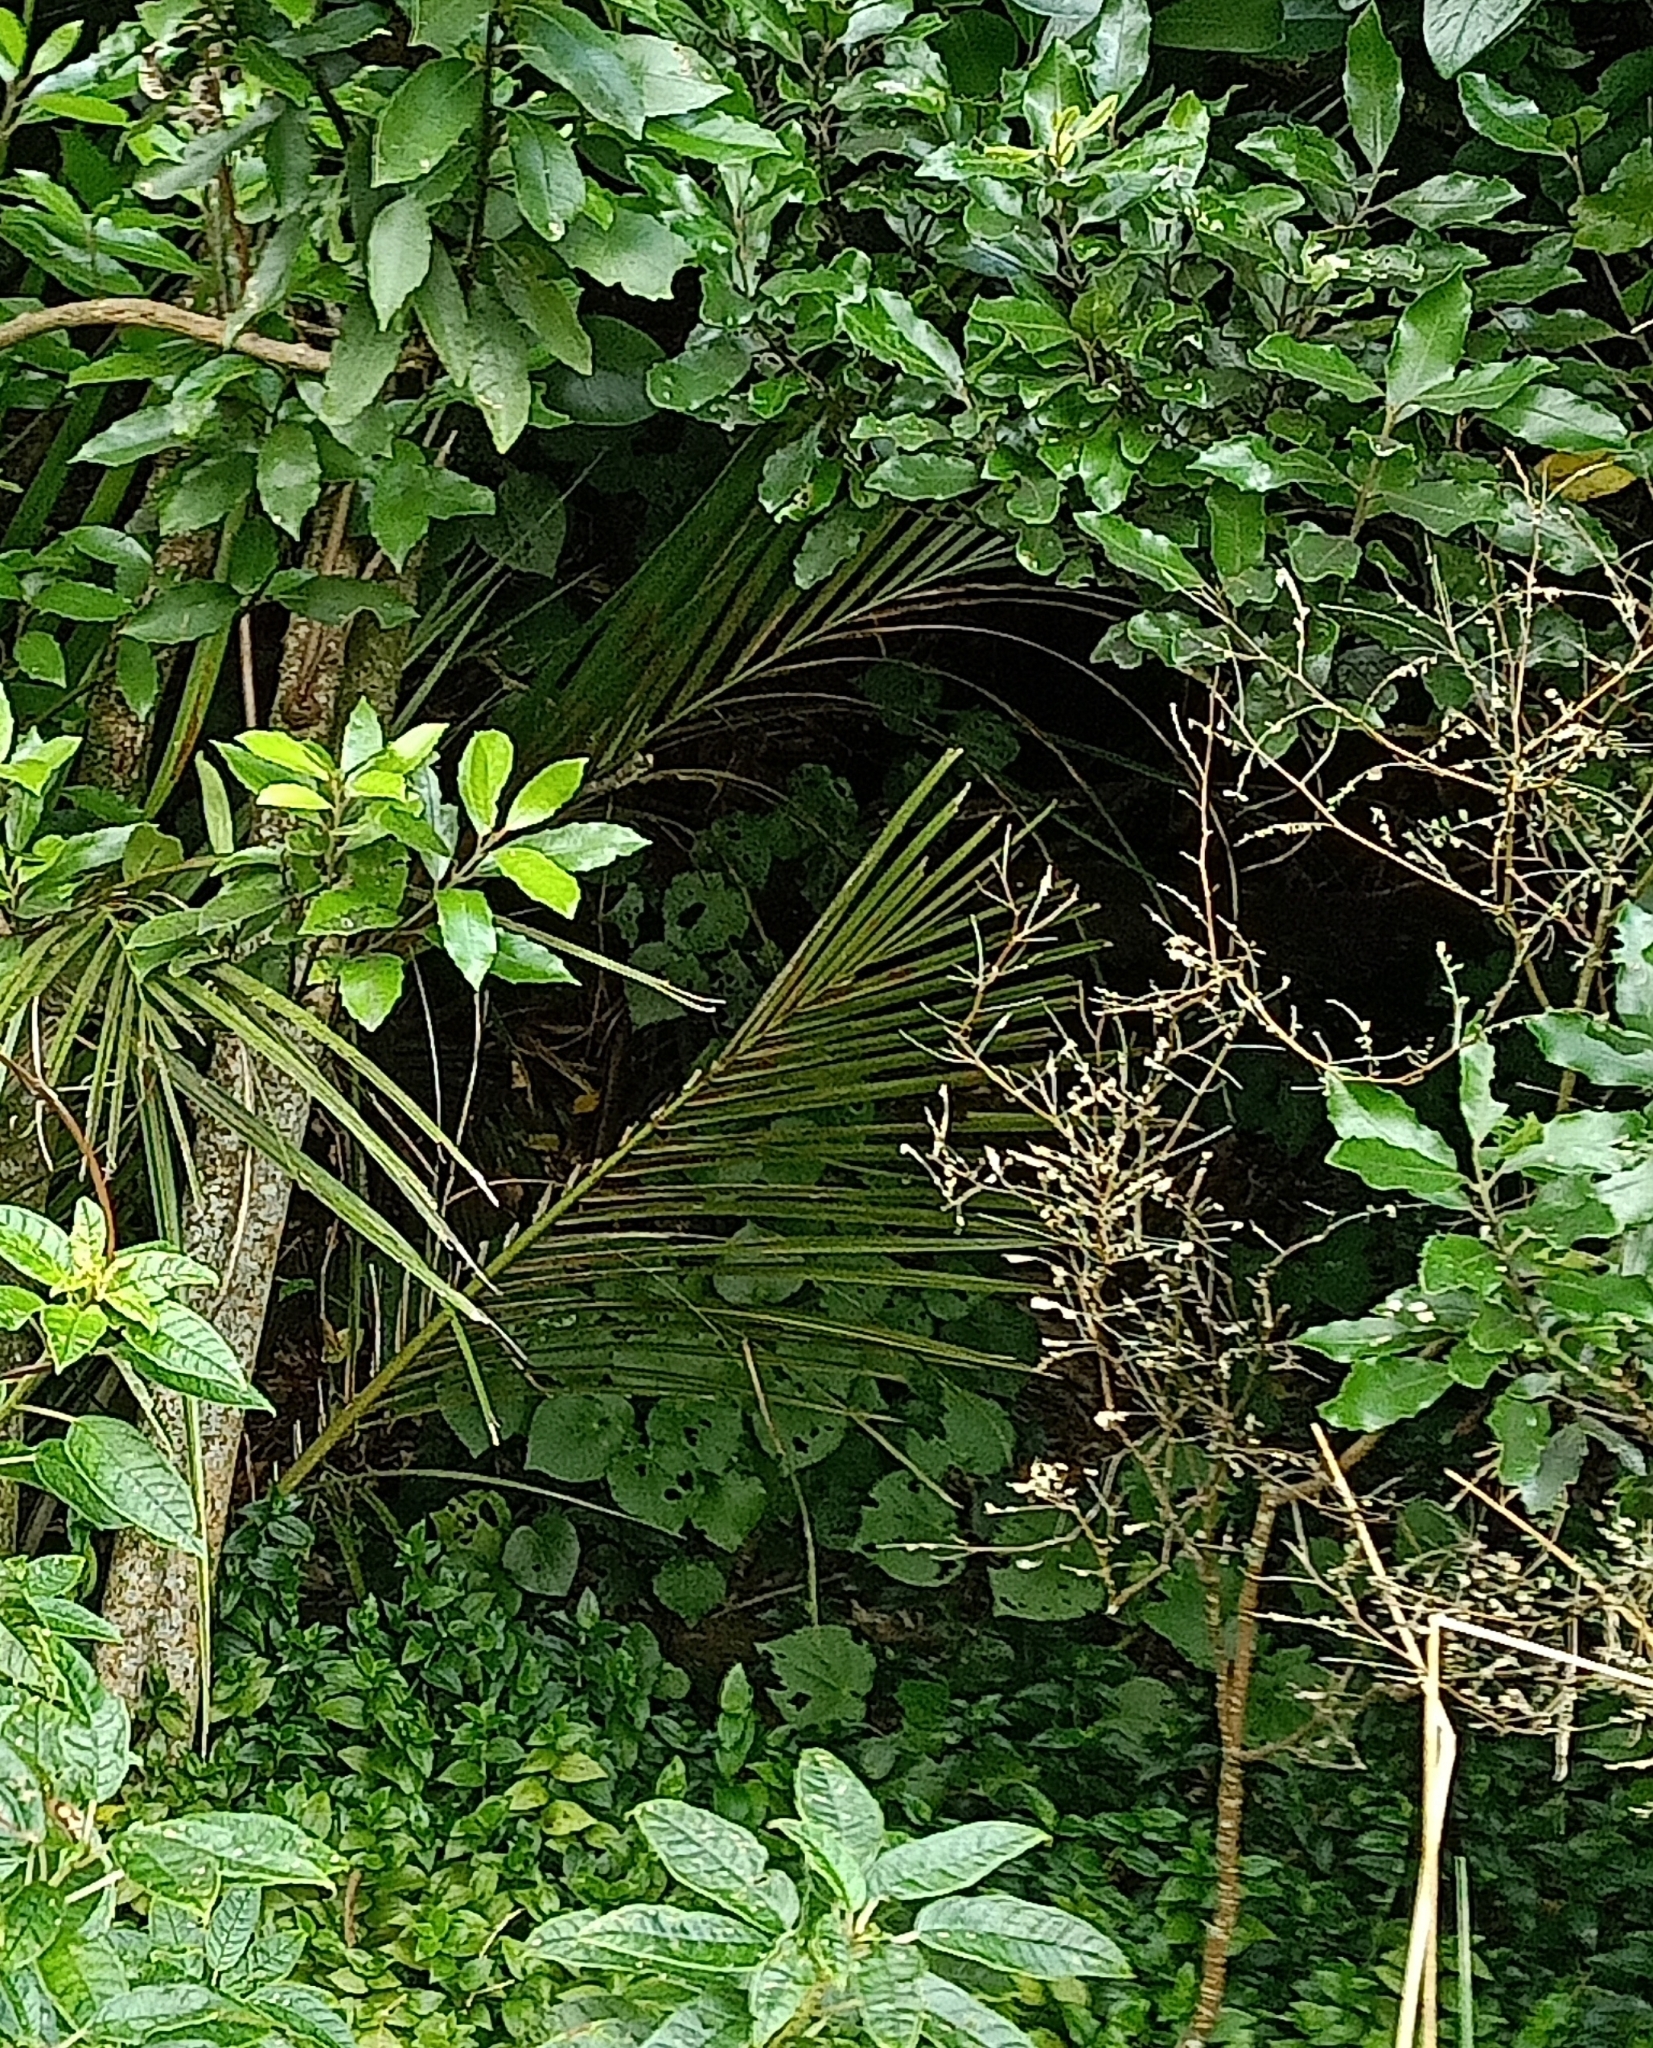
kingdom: Plantae
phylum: Tracheophyta
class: Liliopsida
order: Arecales
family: Arecaceae
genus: Rhopalostylis
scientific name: Rhopalostylis sapida
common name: Feather-duster palm
